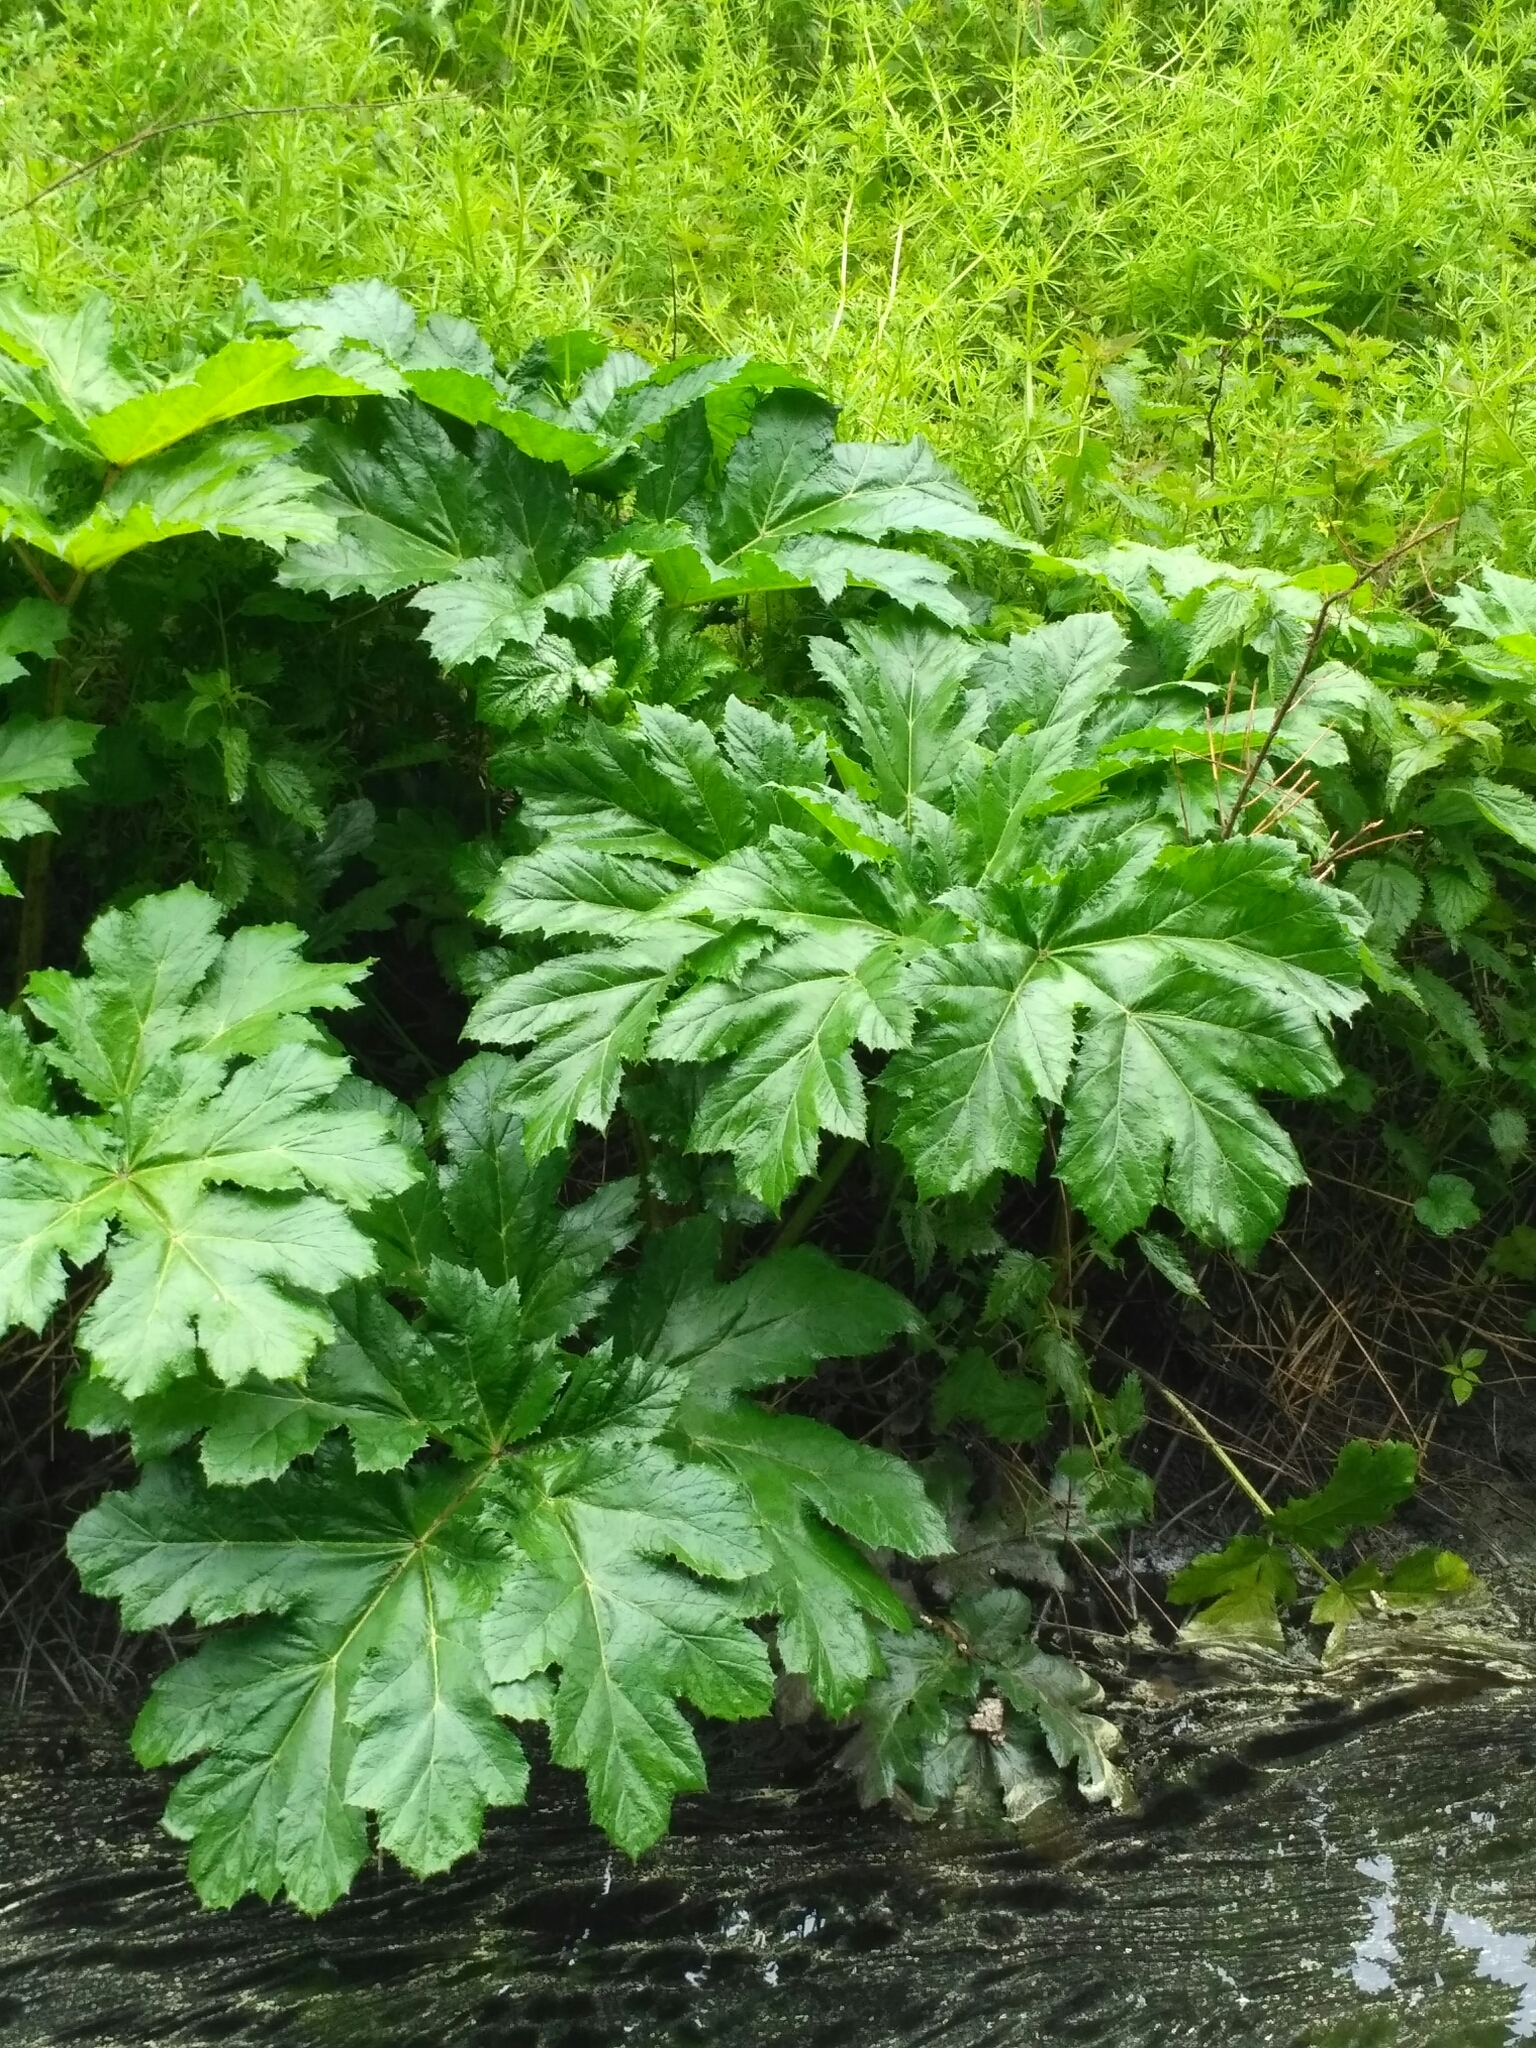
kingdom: Plantae
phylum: Tracheophyta
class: Magnoliopsida
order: Apiales
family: Apiaceae
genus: Heracleum
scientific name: Heracleum sosnowskyi
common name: Sosnowsky's hogweed
